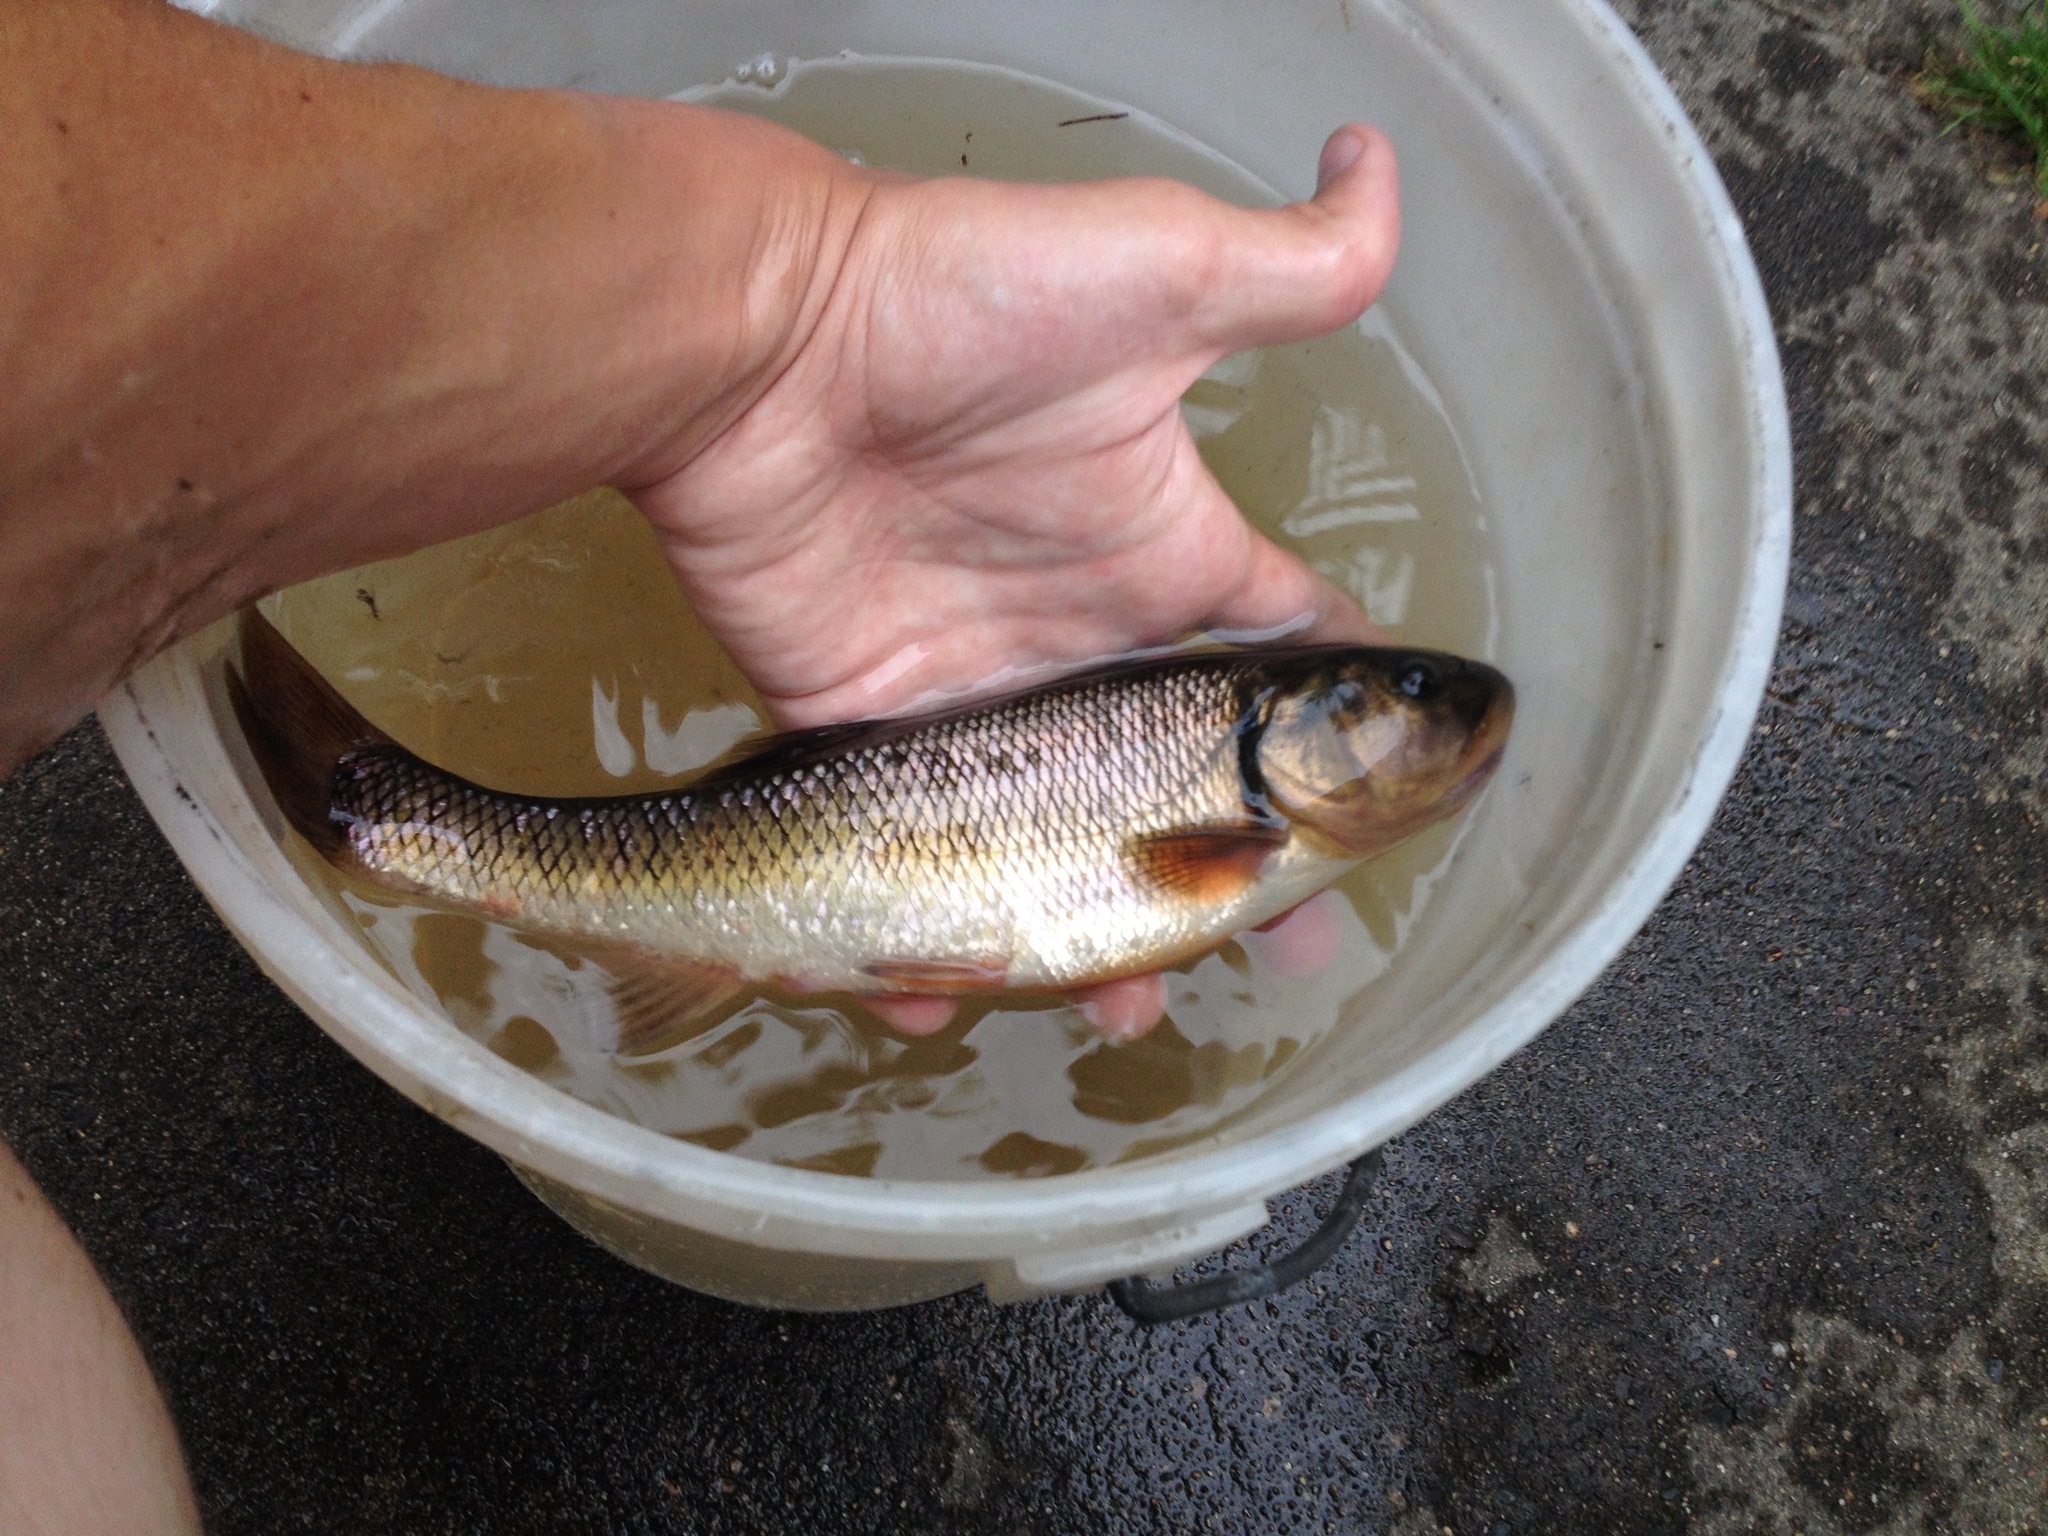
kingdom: Animalia
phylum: Chordata
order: Cypriniformes
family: Cyprinidae
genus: Semotilus
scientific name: Semotilus atromaculatus
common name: Creek chub
